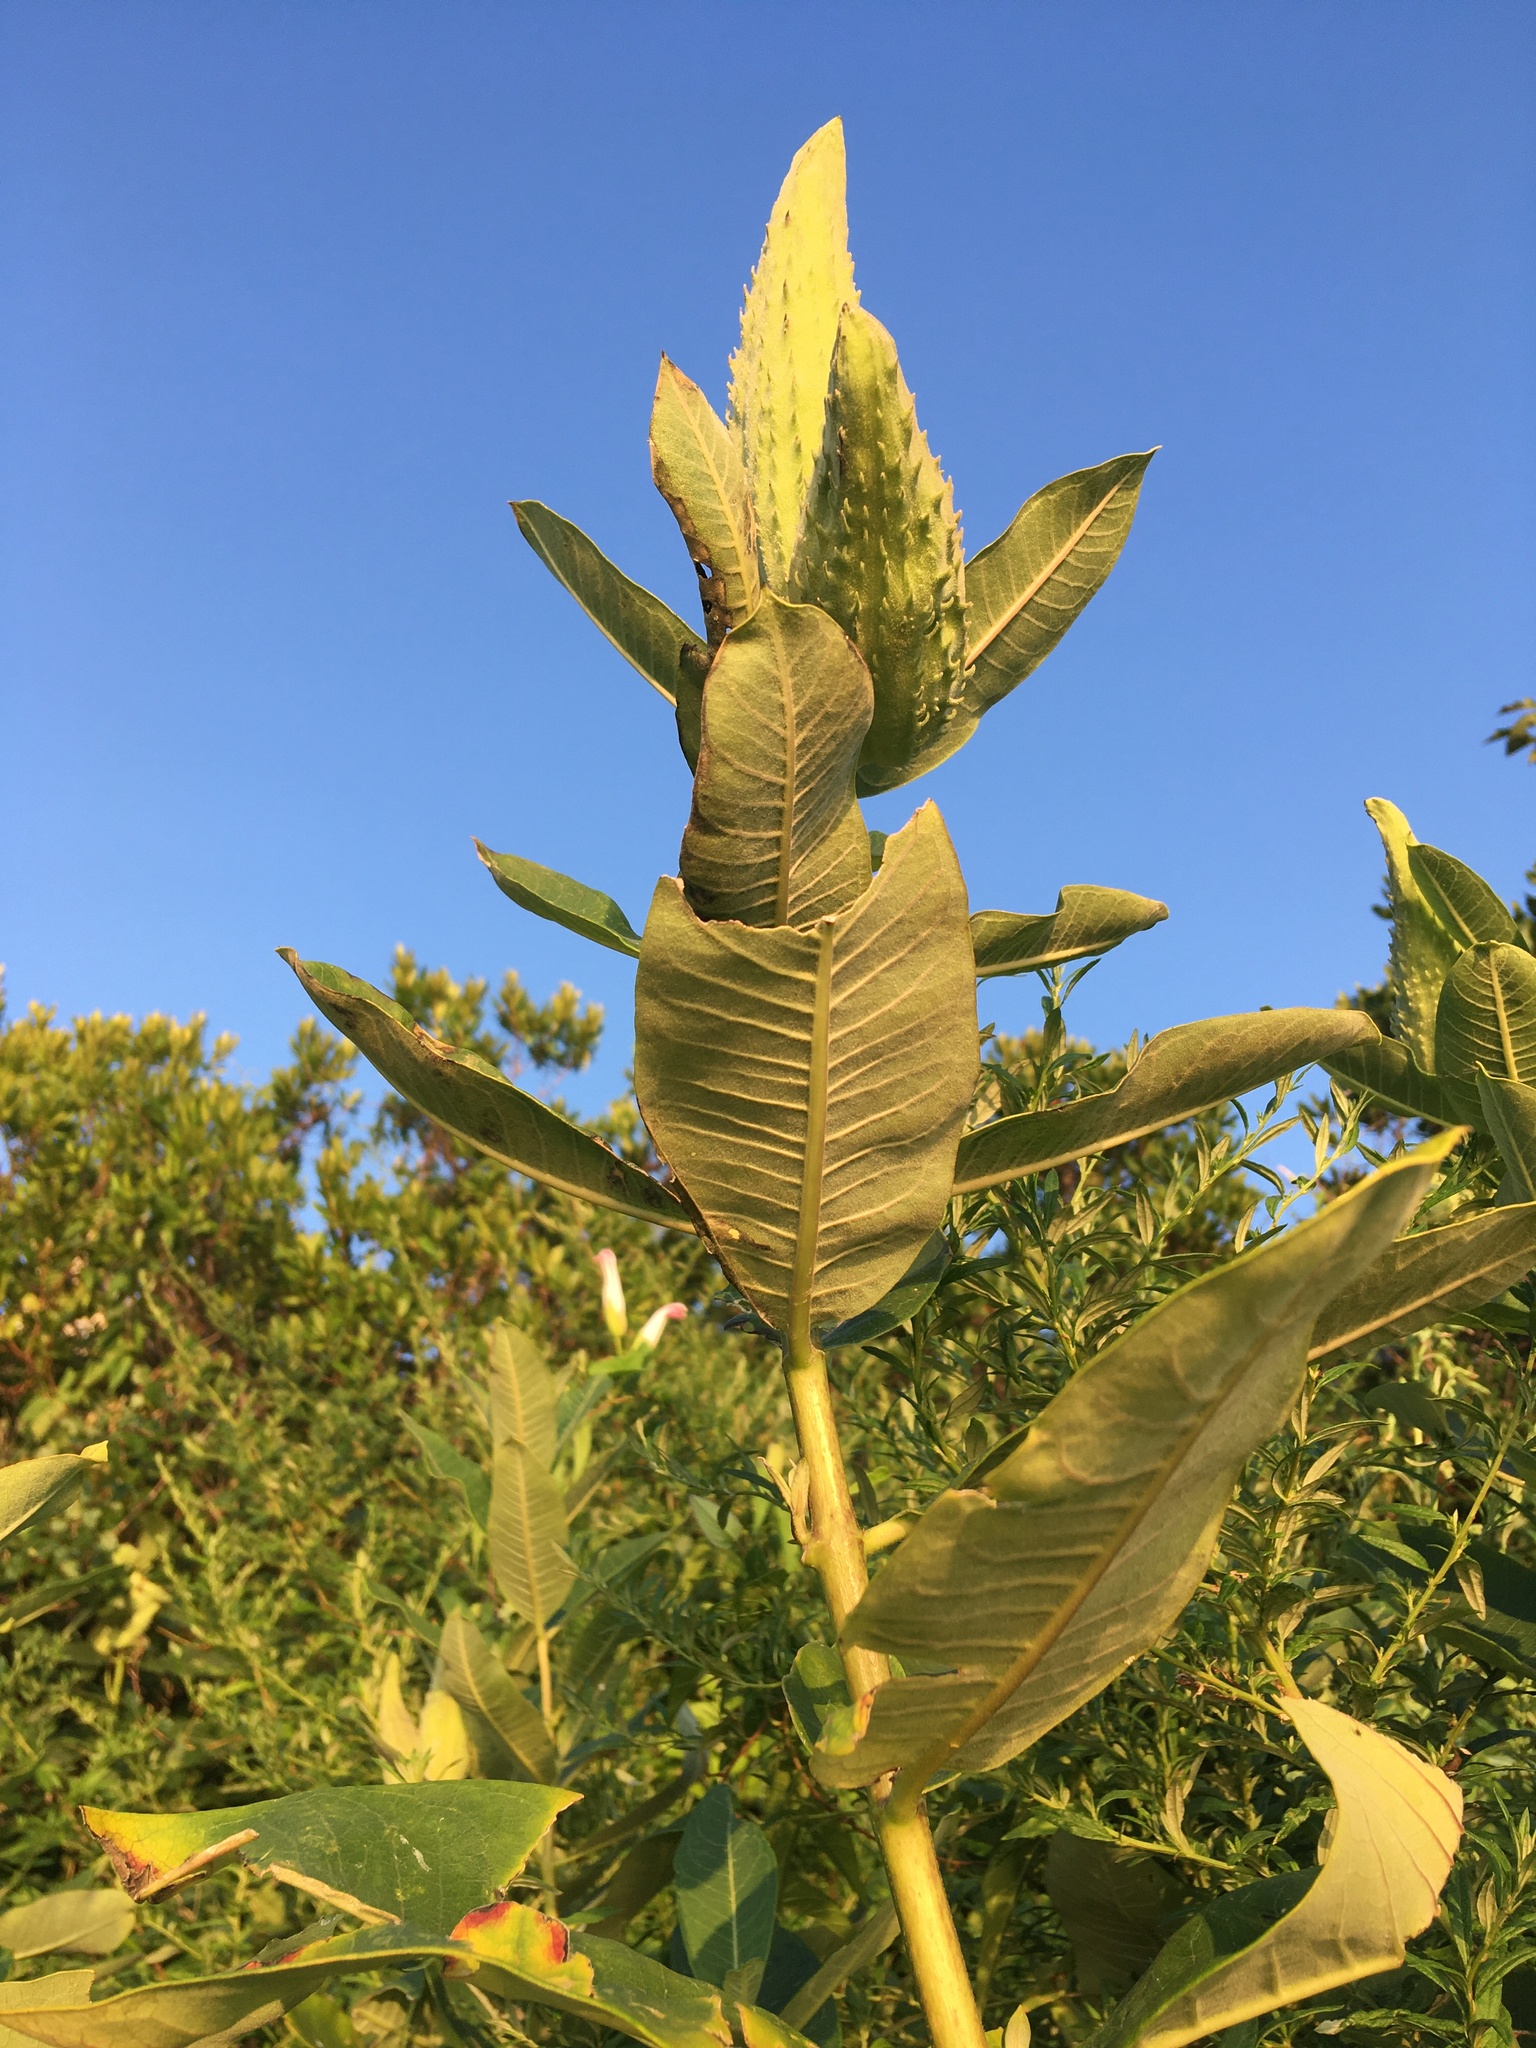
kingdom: Plantae
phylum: Tracheophyta
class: Magnoliopsida
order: Gentianales
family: Apocynaceae
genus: Asclepias
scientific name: Asclepias syriaca
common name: Common milkweed
